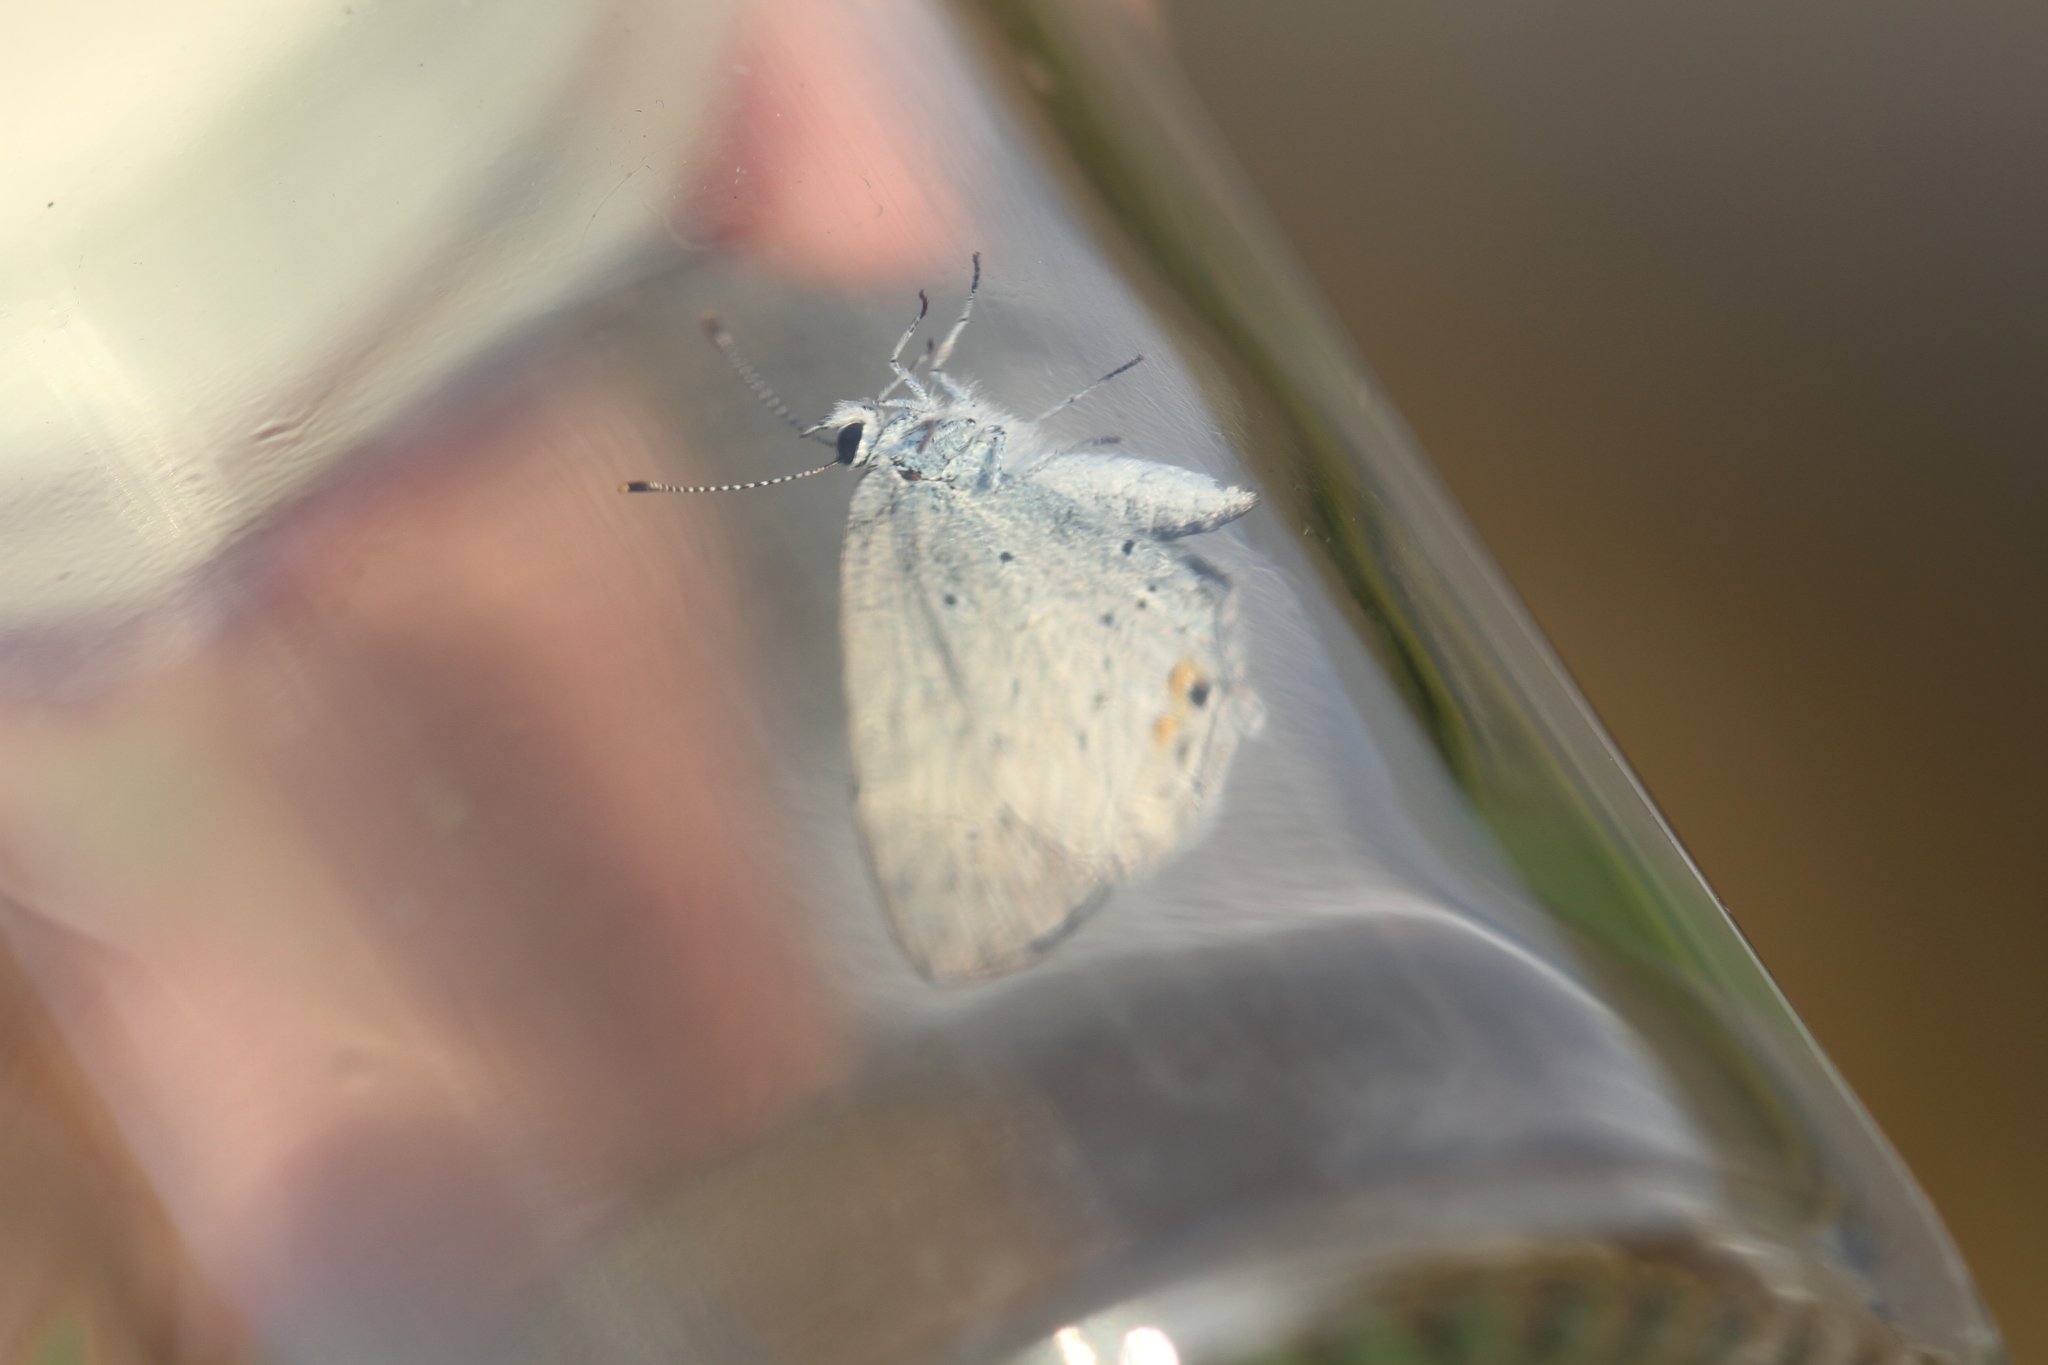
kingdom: Animalia
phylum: Arthropoda
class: Insecta
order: Lepidoptera
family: Lycaenidae
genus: Elkalyce
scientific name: Elkalyce argiades
